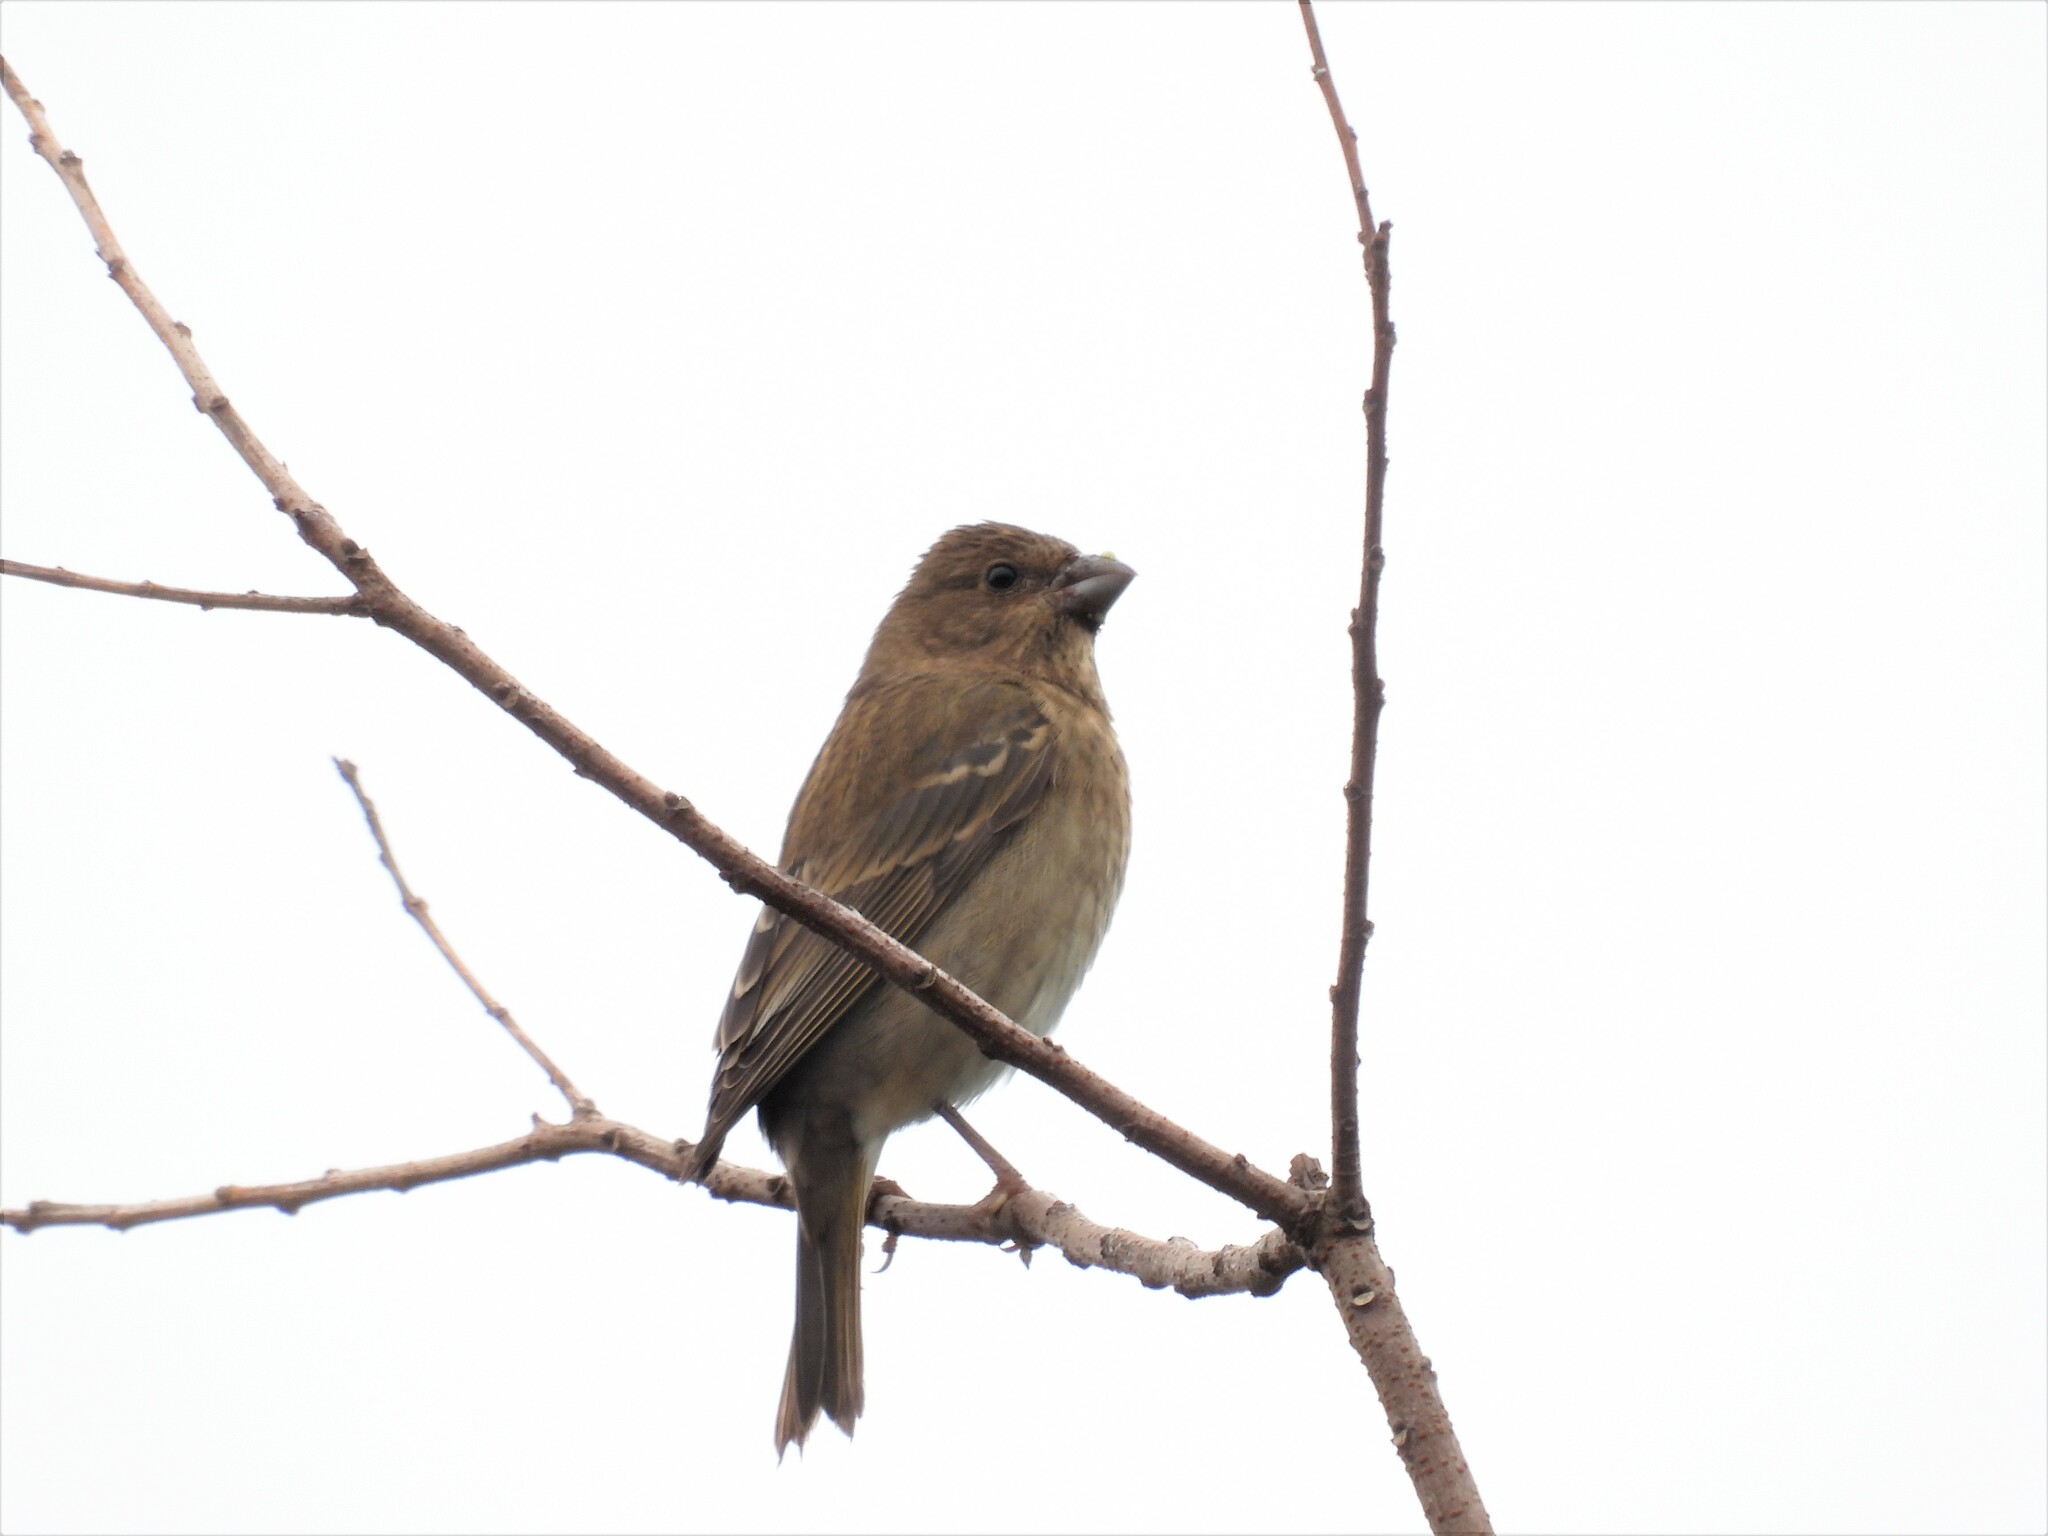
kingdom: Animalia
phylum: Chordata
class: Aves
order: Passeriformes
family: Fringillidae
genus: Carpodacus
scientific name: Carpodacus erythrinus
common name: Common rosefinch
